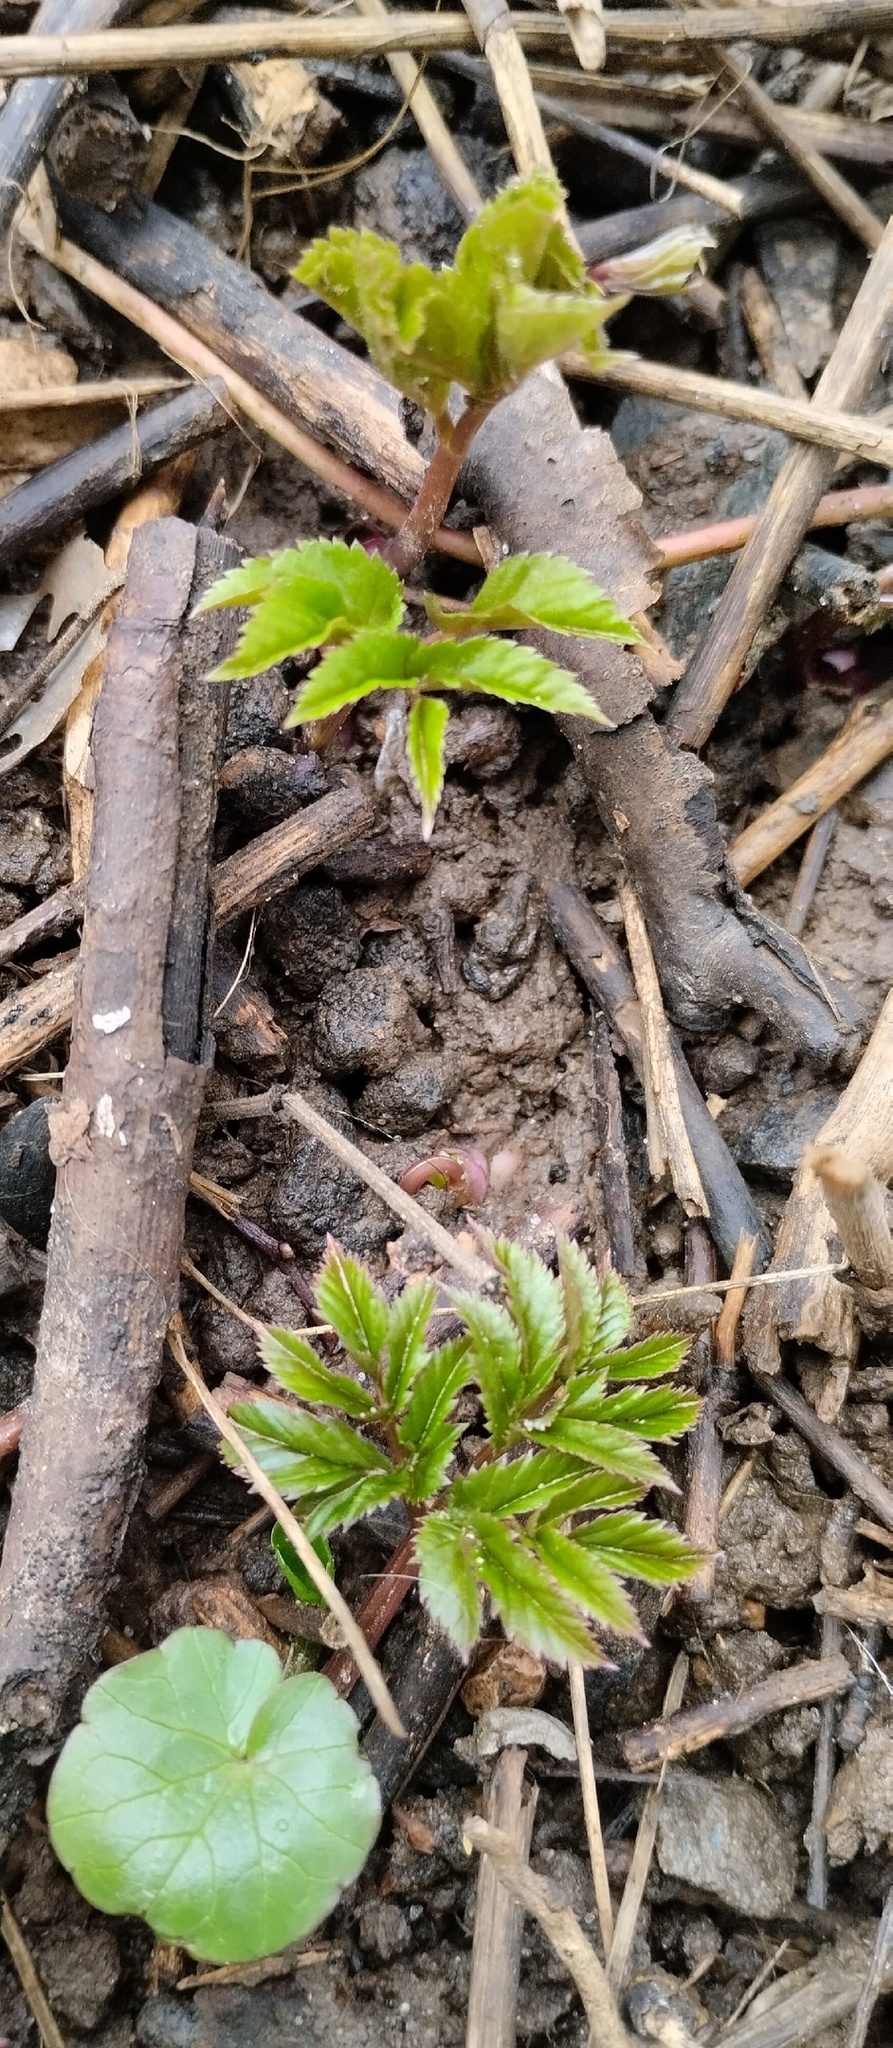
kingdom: Plantae
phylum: Tracheophyta
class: Magnoliopsida
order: Apiales
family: Apiaceae
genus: Aegopodium
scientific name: Aegopodium podagraria
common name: Ground-elder
